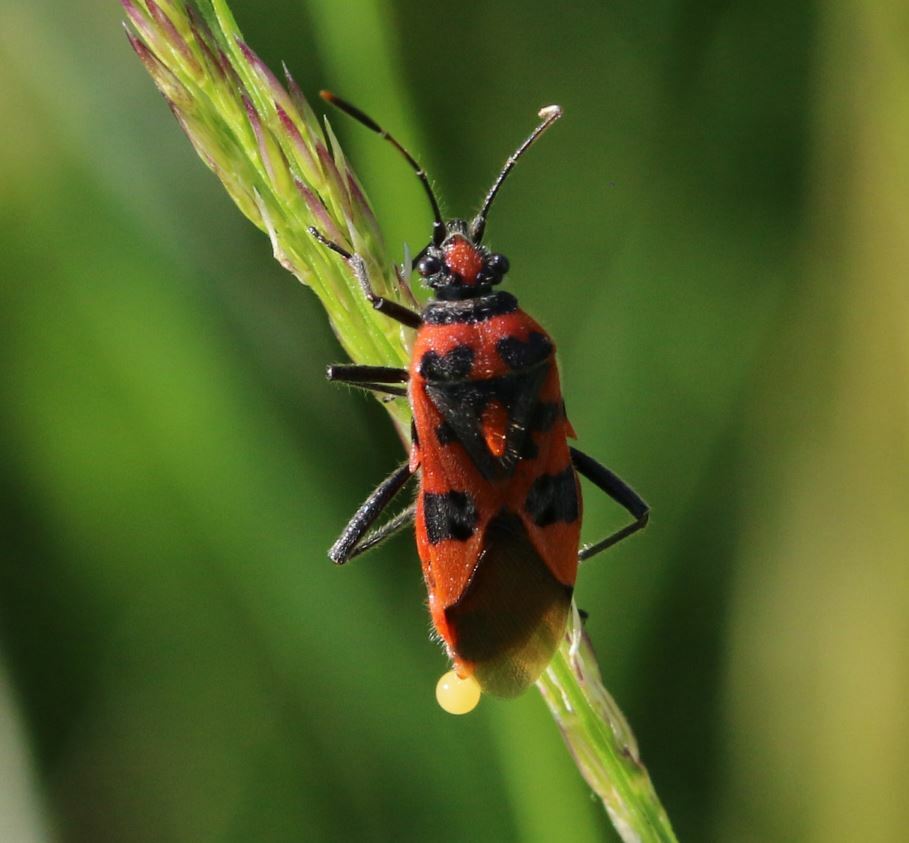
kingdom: Animalia
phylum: Arthropoda
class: Insecta
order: Hemiptera
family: Rhopalidae
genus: Corizus
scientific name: Corizus hyoscyami
